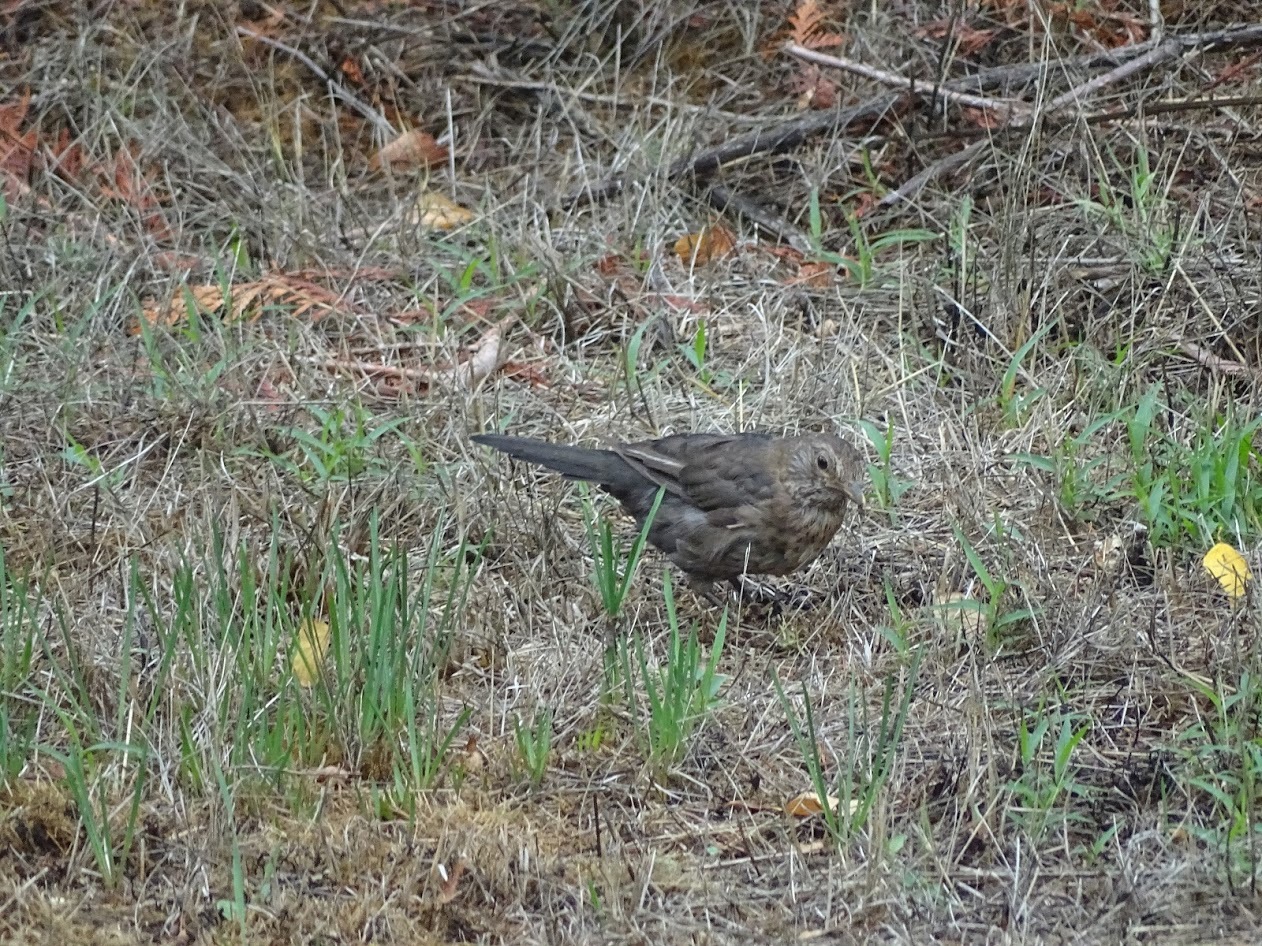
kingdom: Animalia
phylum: Chordata
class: Aves
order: Passeriformes
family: Turdidae
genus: Turdus
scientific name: Turdus merula
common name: Common blackbird
